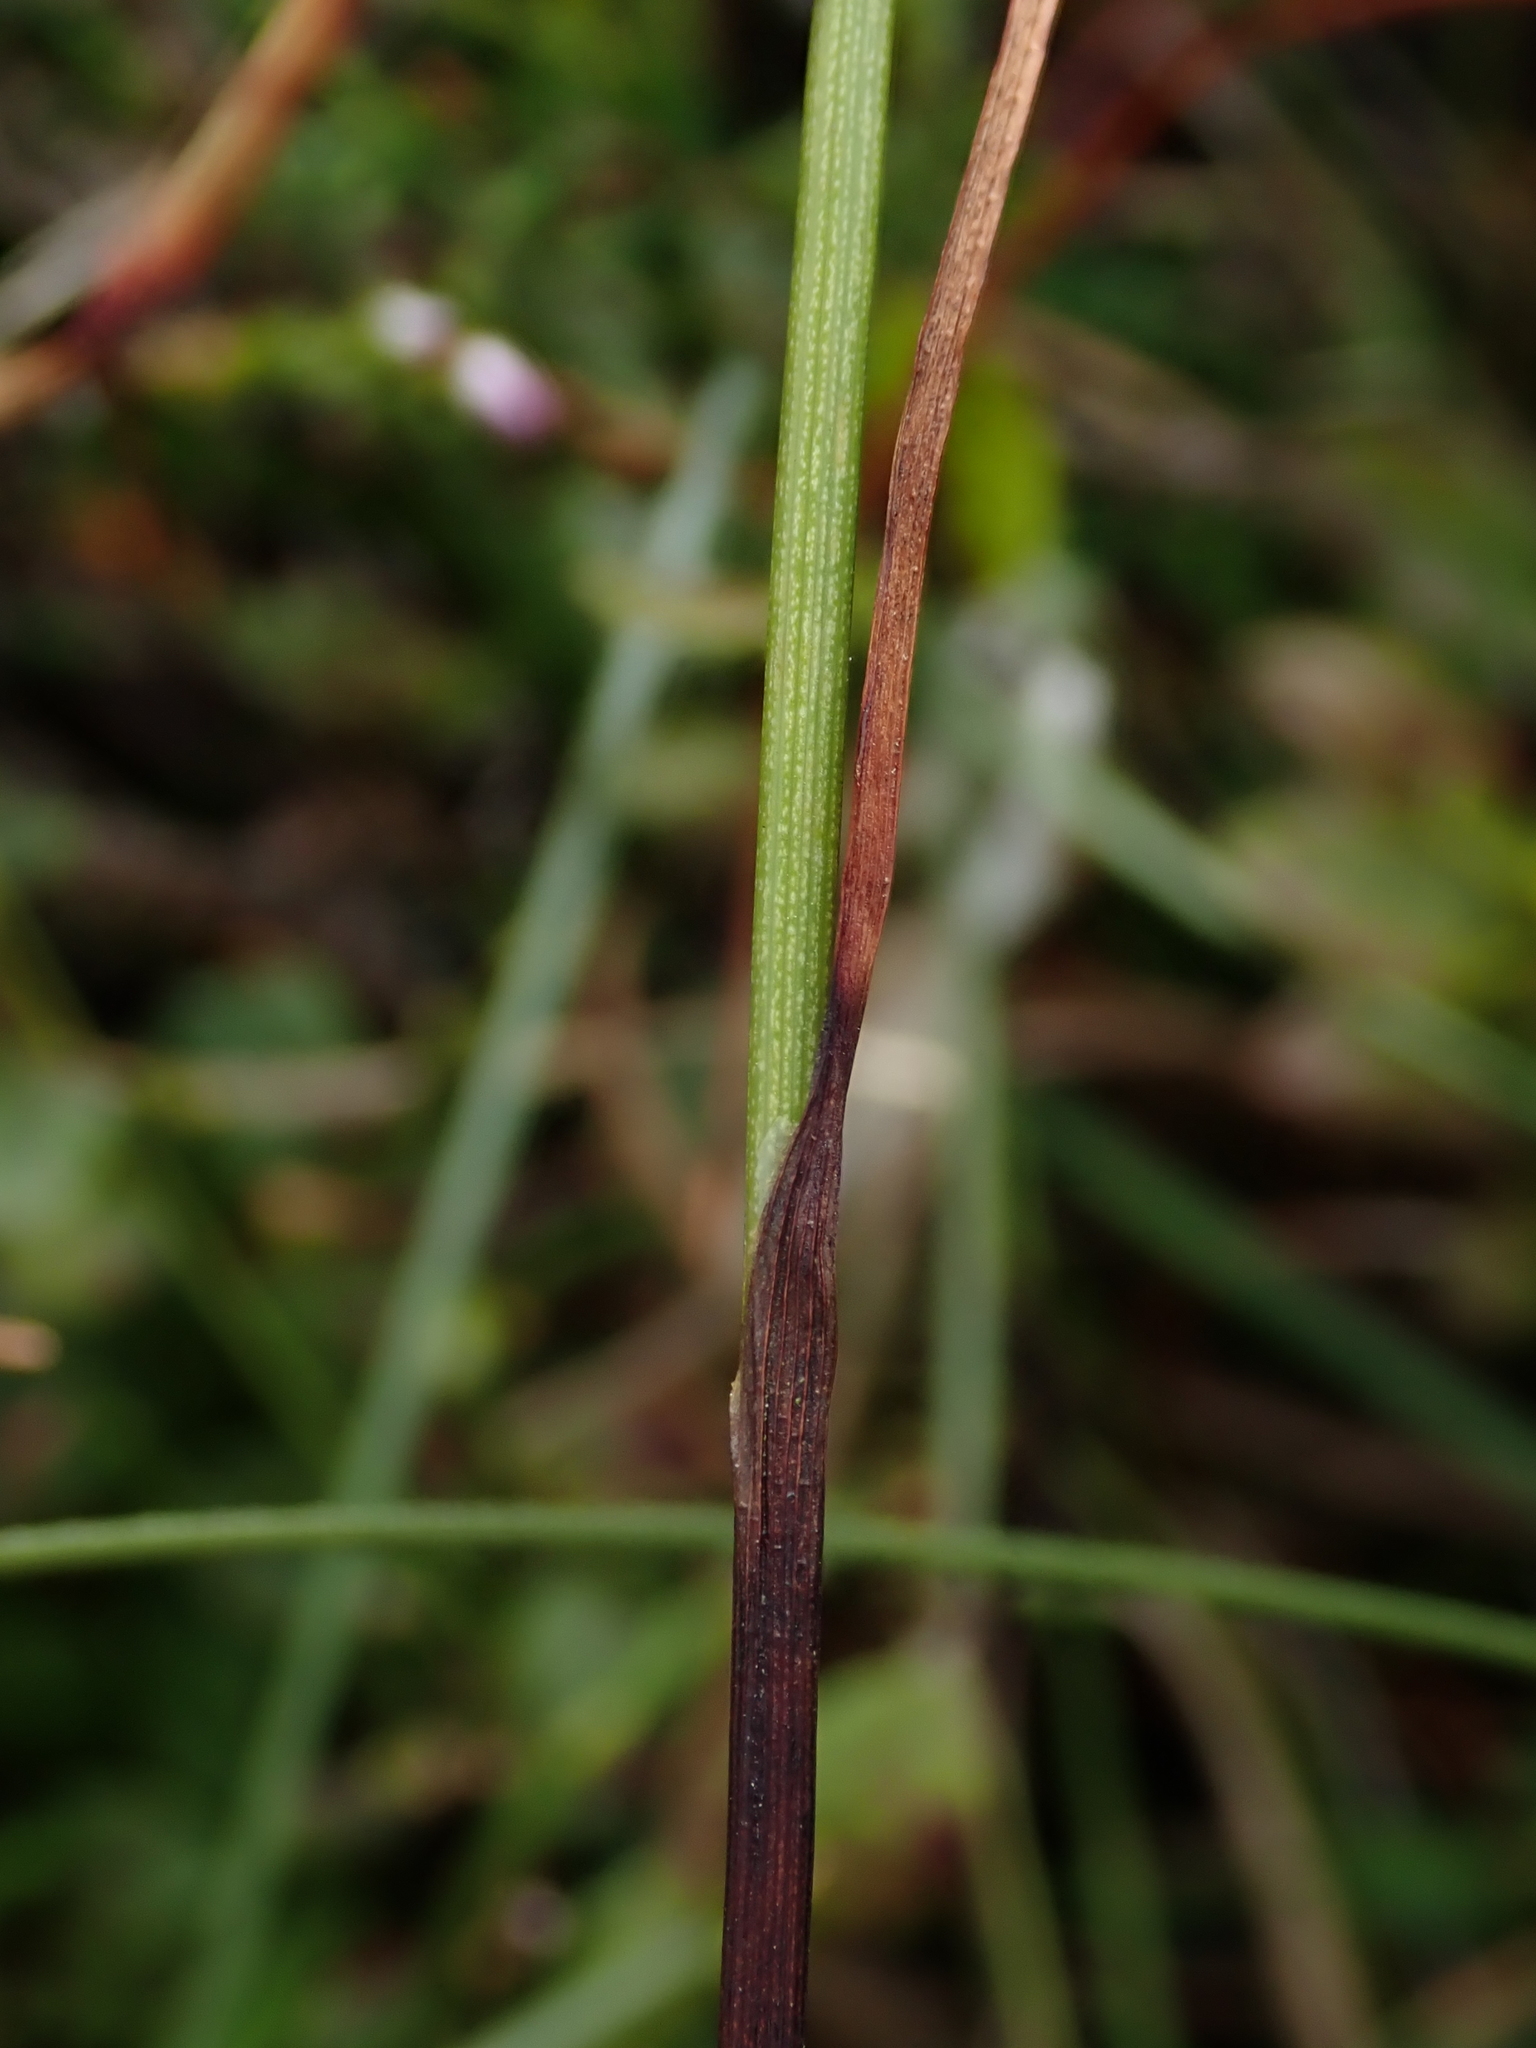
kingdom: Plantae
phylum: Tracheophyta
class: Liliopsida
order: Poales
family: Cyperaceae
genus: Eriophorum
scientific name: Eriophorum angustifolium
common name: Common cottongrass
